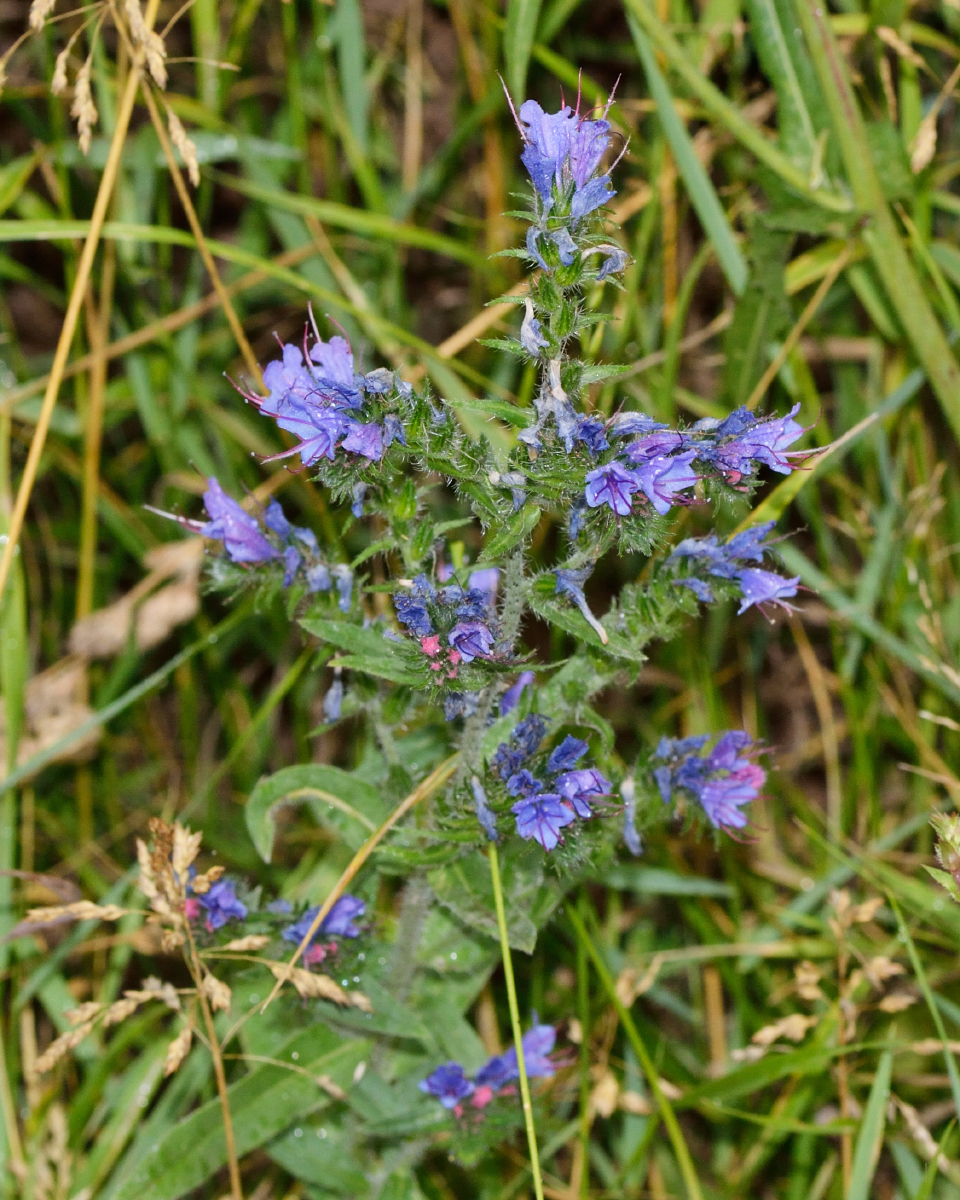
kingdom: Plantae
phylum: Tracheophyta
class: Magnoliopsida
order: Boraginales
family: Boraginaceae
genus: Echium
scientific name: Echium vulgare
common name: Common viper's bugloss
